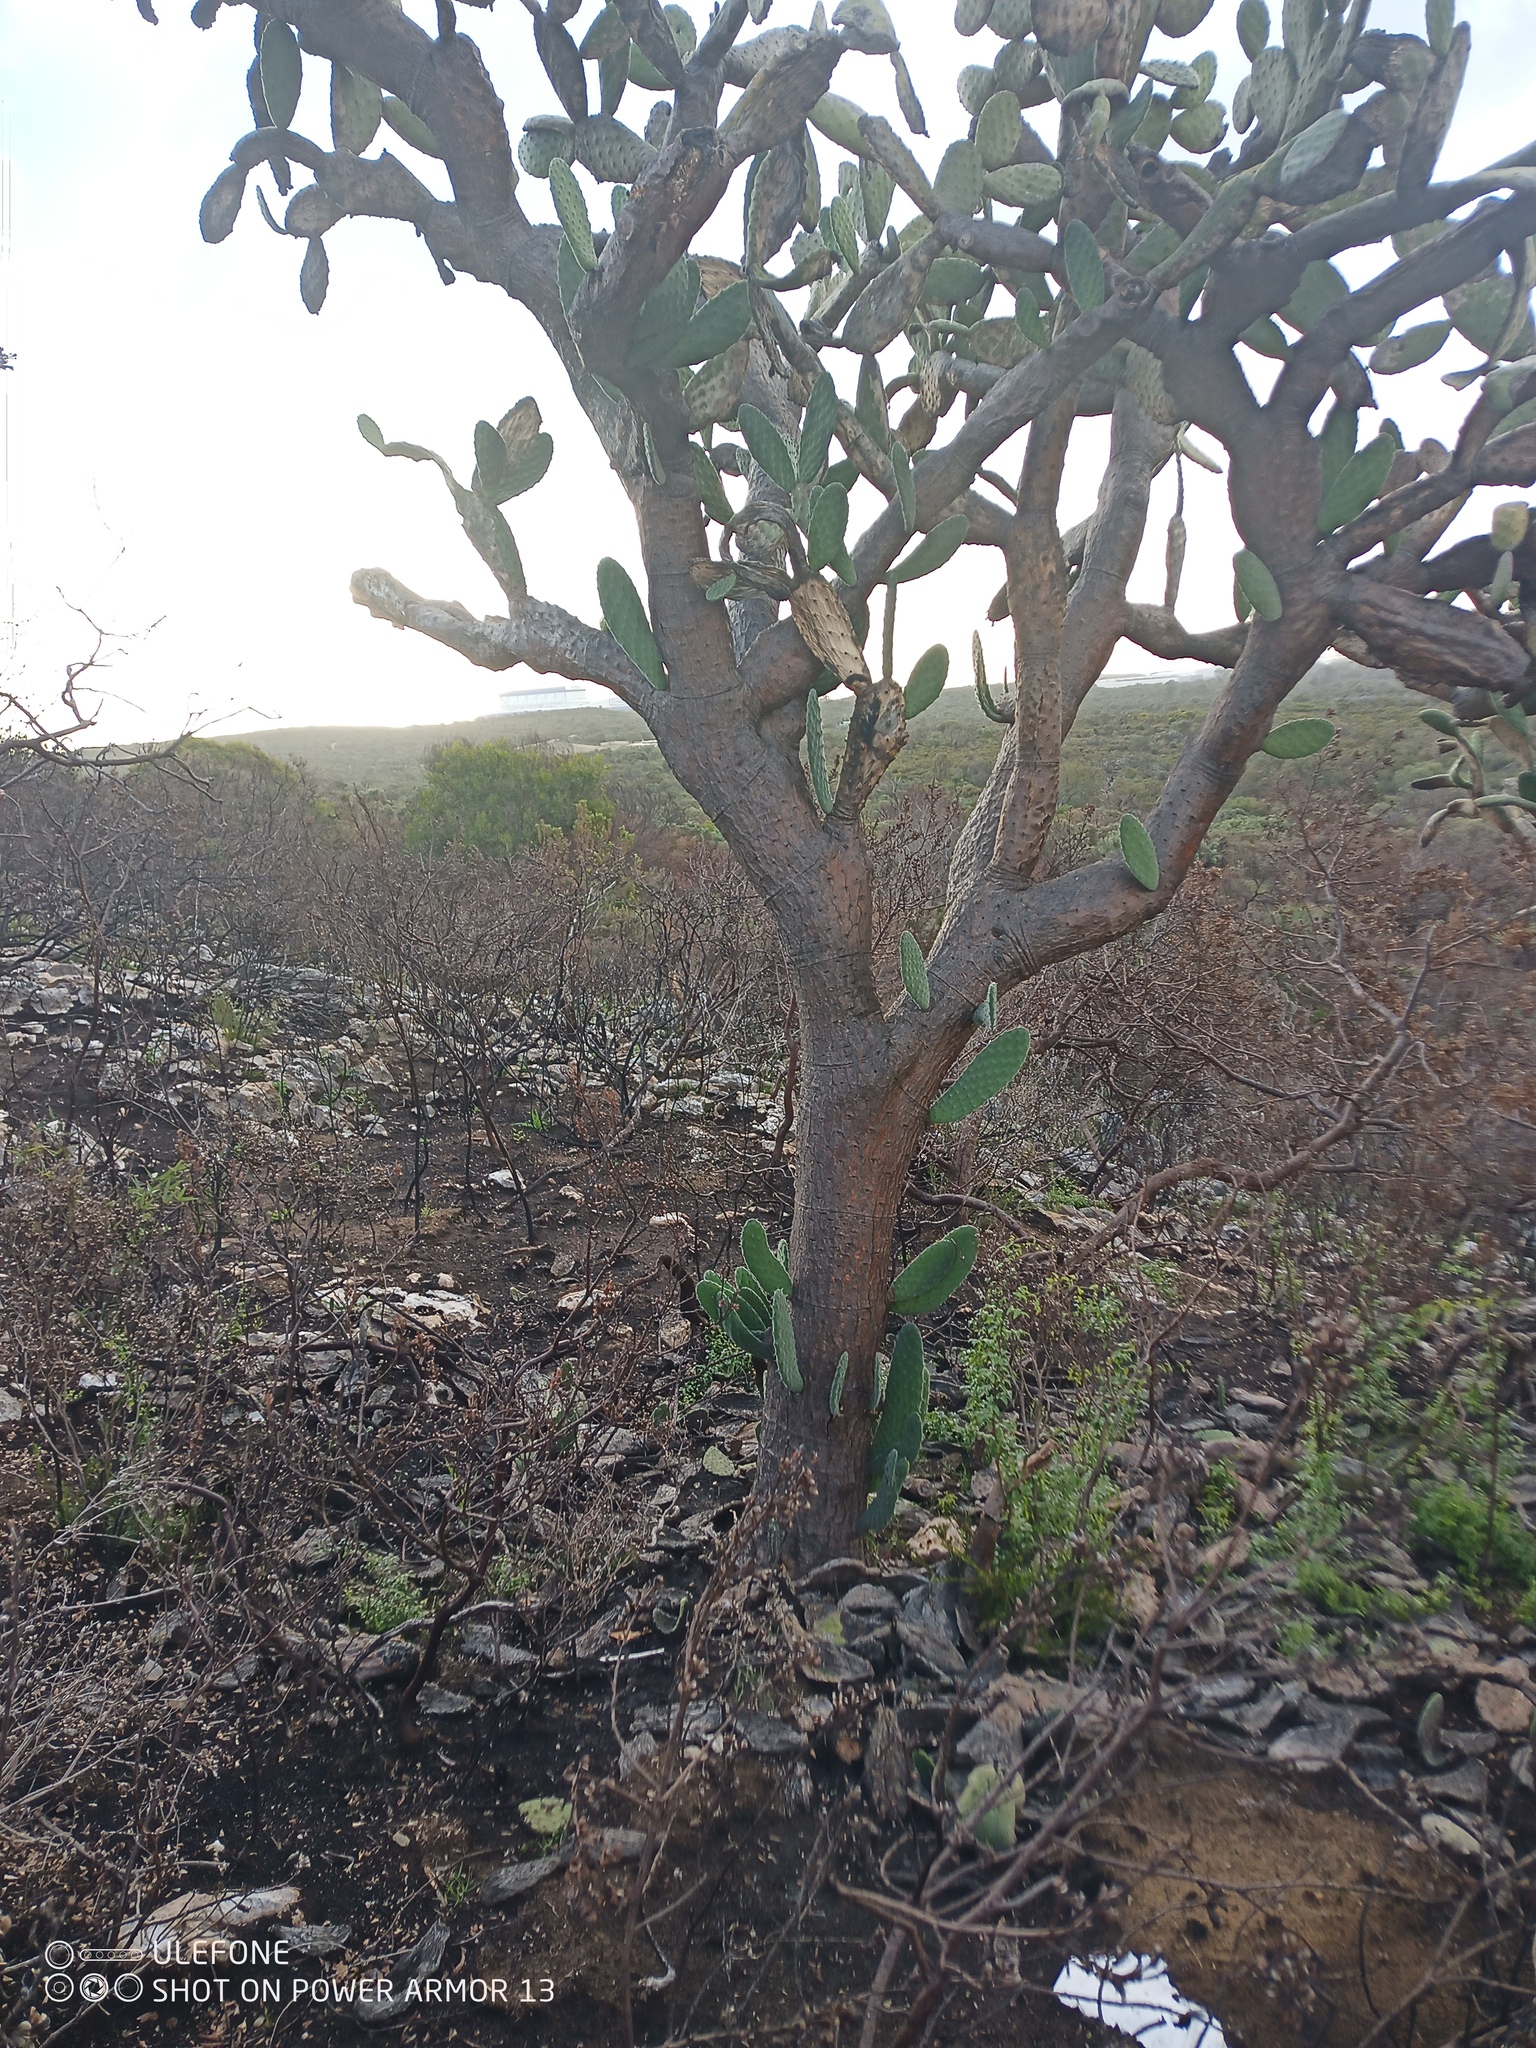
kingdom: Plantae
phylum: Tracheophyta
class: Magnoliopsida
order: Caryophyllales
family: Cactaceae
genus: Opuntia
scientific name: Opuntia tomentosa
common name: Woollyjoint pricklypear
